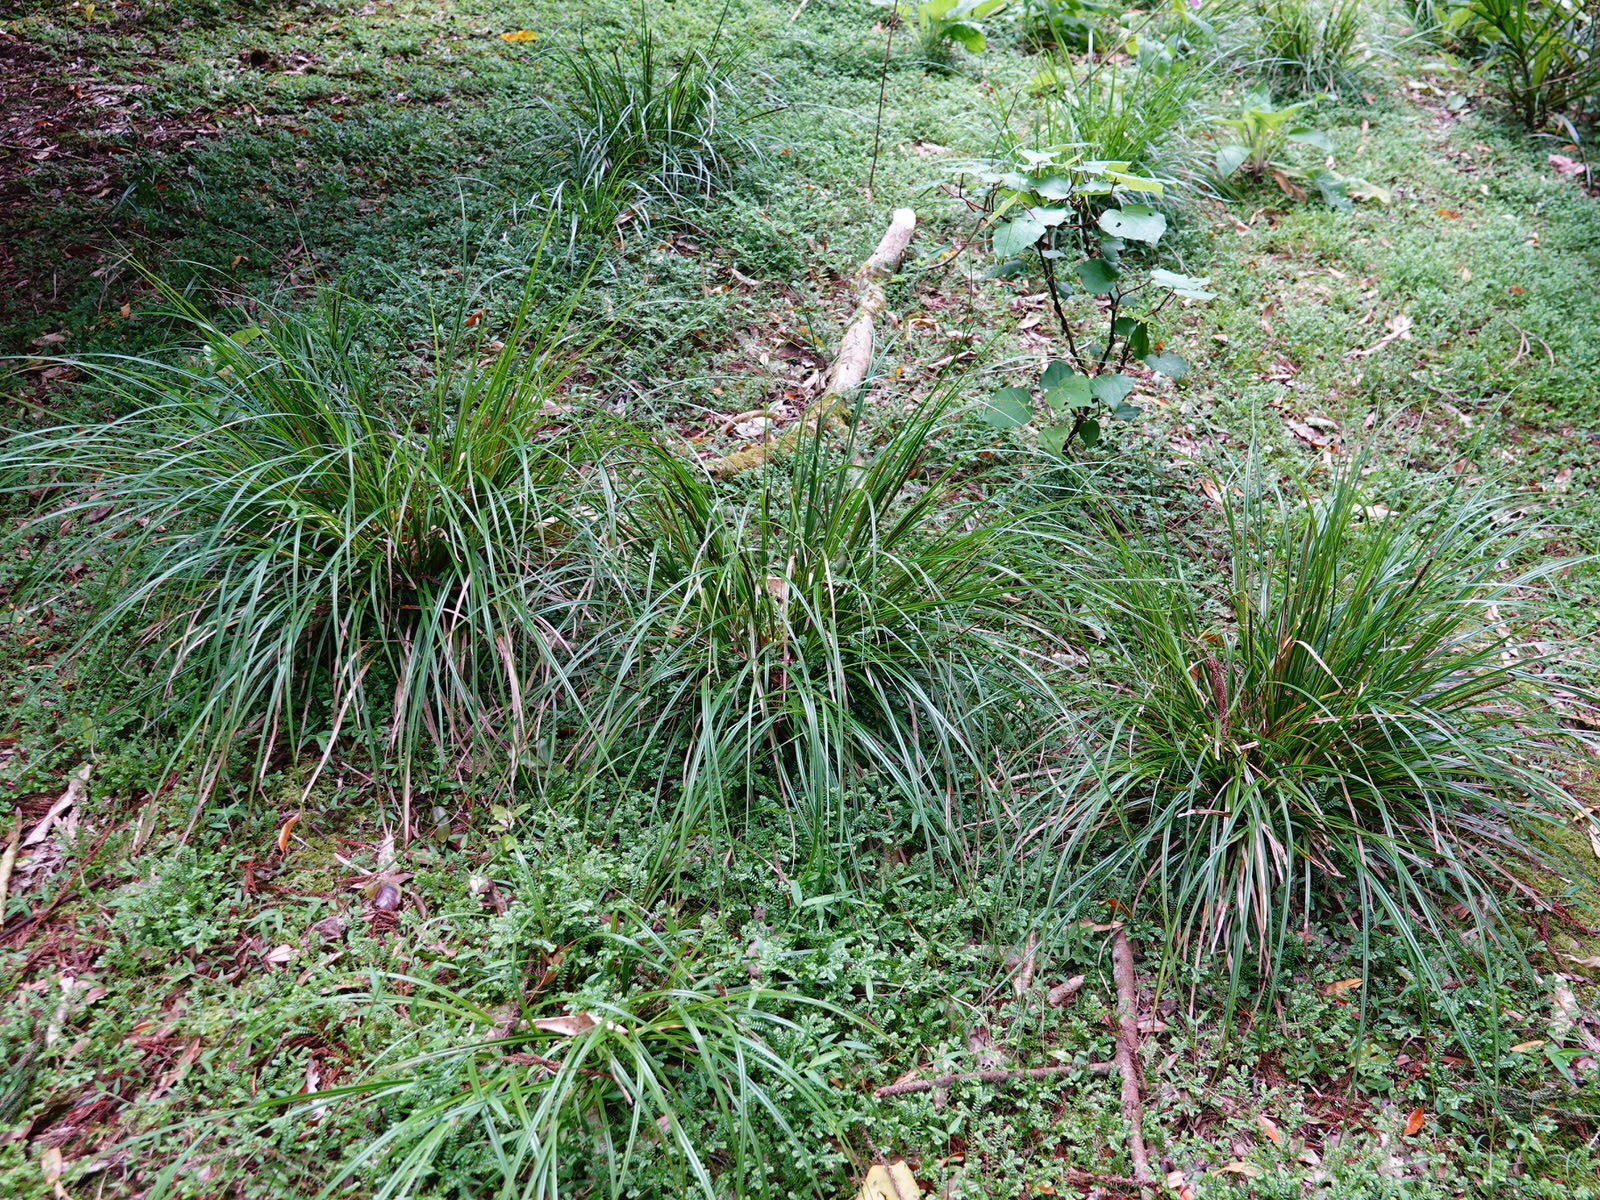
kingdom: Plantae
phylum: Tracheophyta
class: Liliopsida
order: Poales
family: Cyperaceae
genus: Carex
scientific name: Carex uncinata
